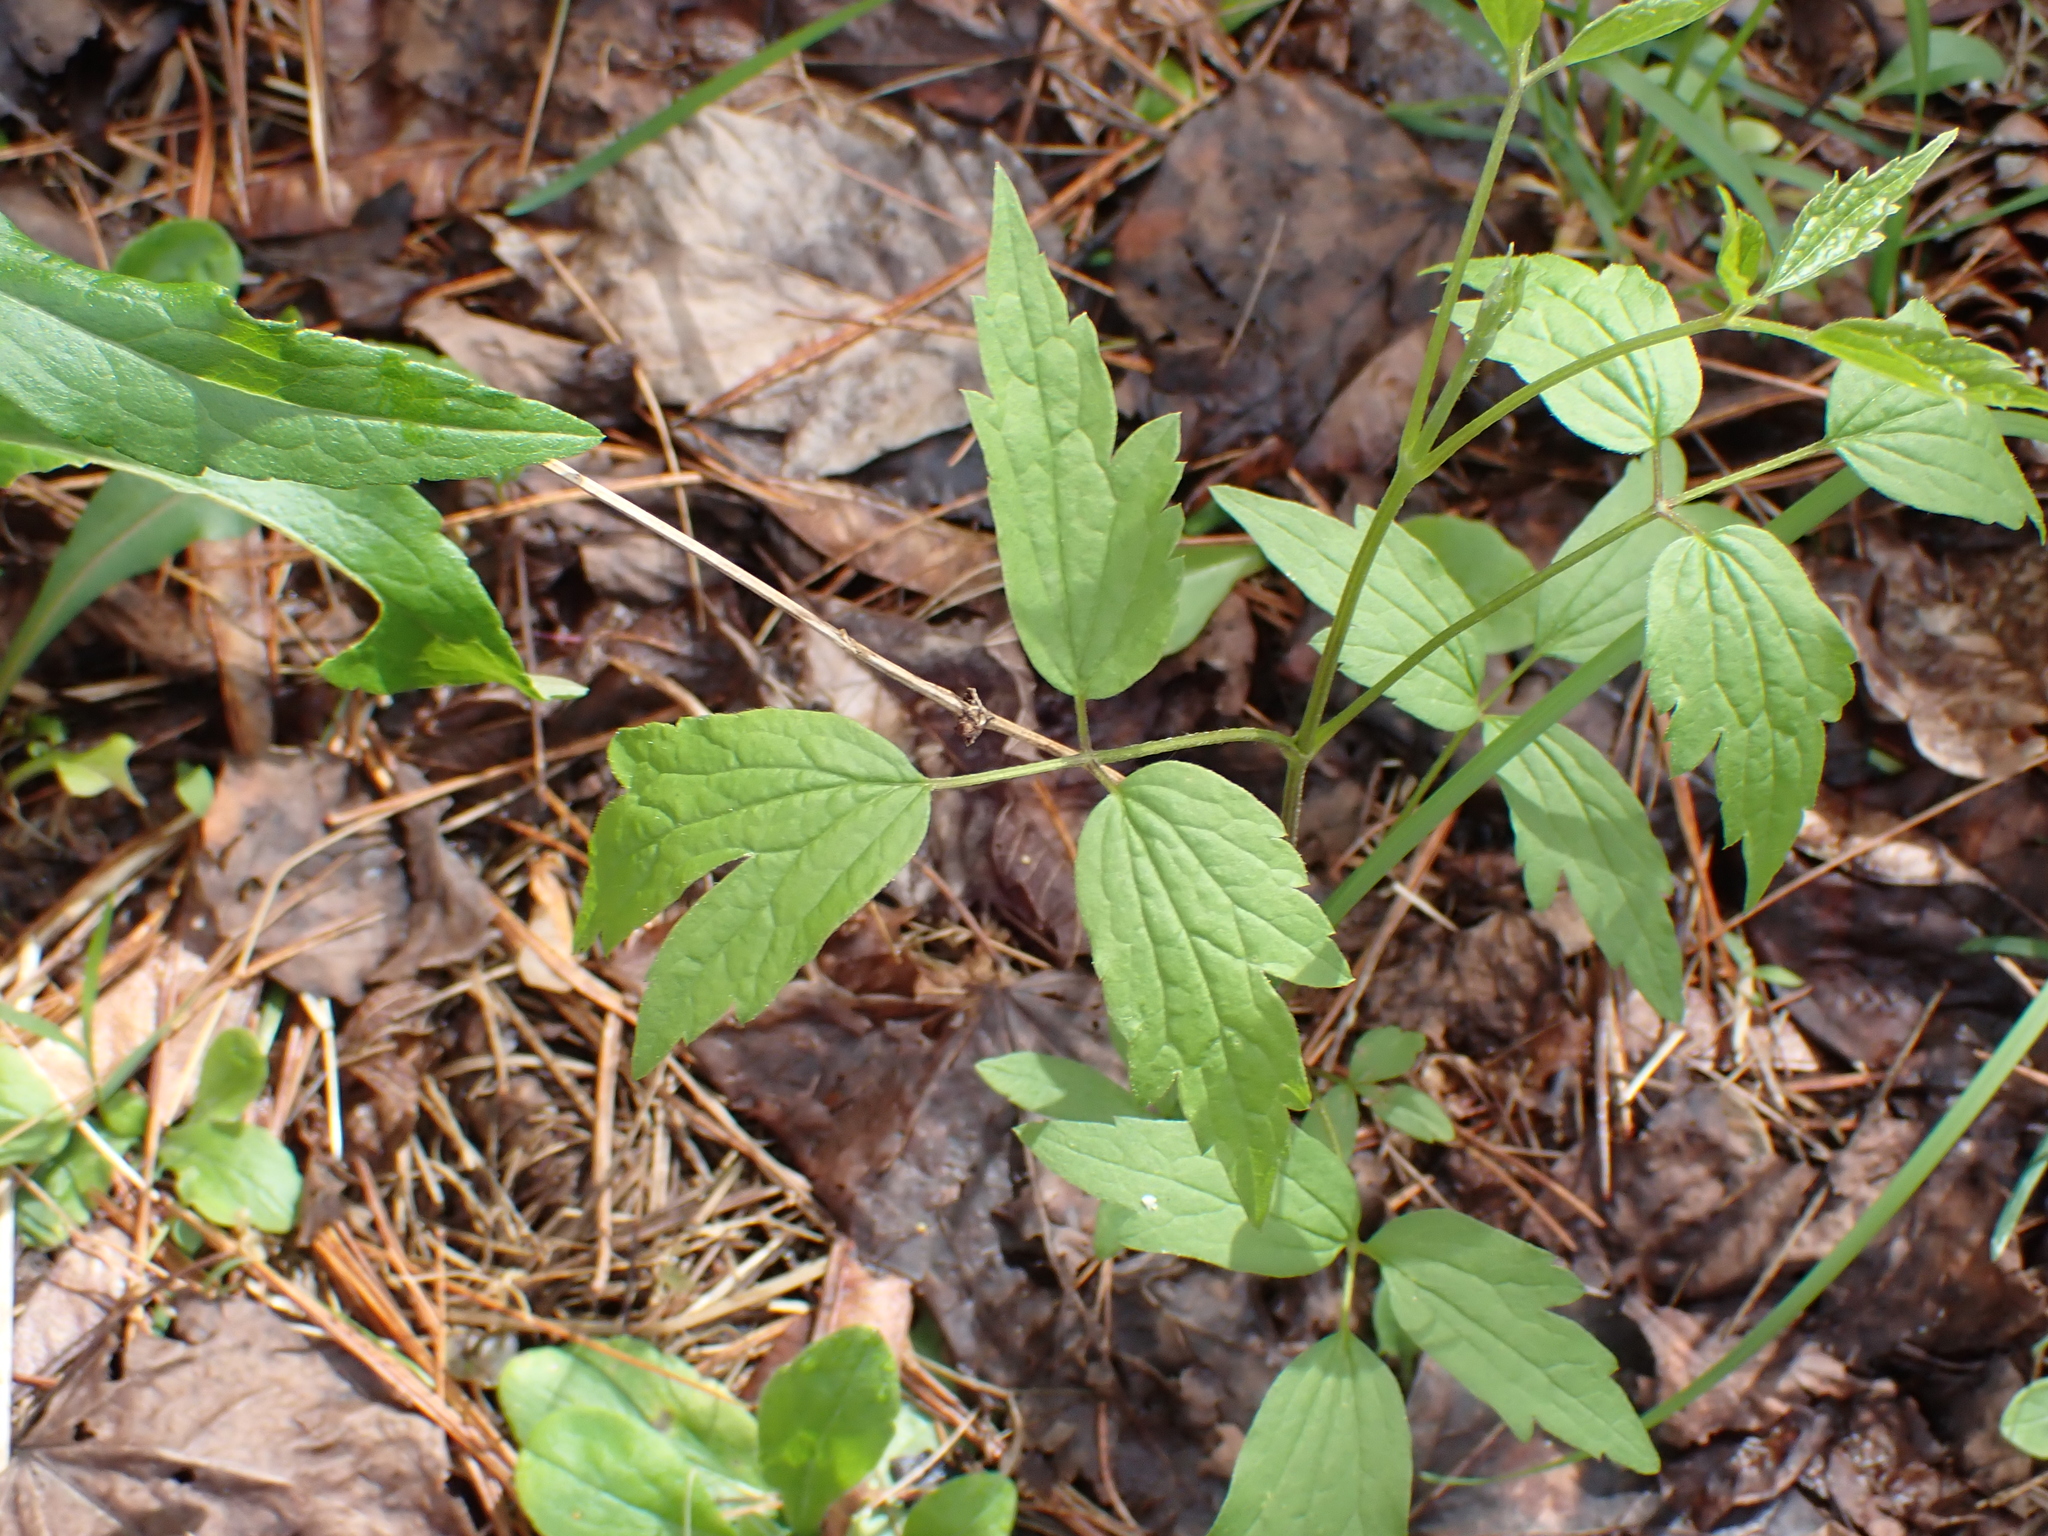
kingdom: Plantae
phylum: Tracheophyta
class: Magnoliopsida
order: Ranunculales
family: Ranunculaceae
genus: Clematis
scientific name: Clematis virginiana
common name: Virgin's-bower
